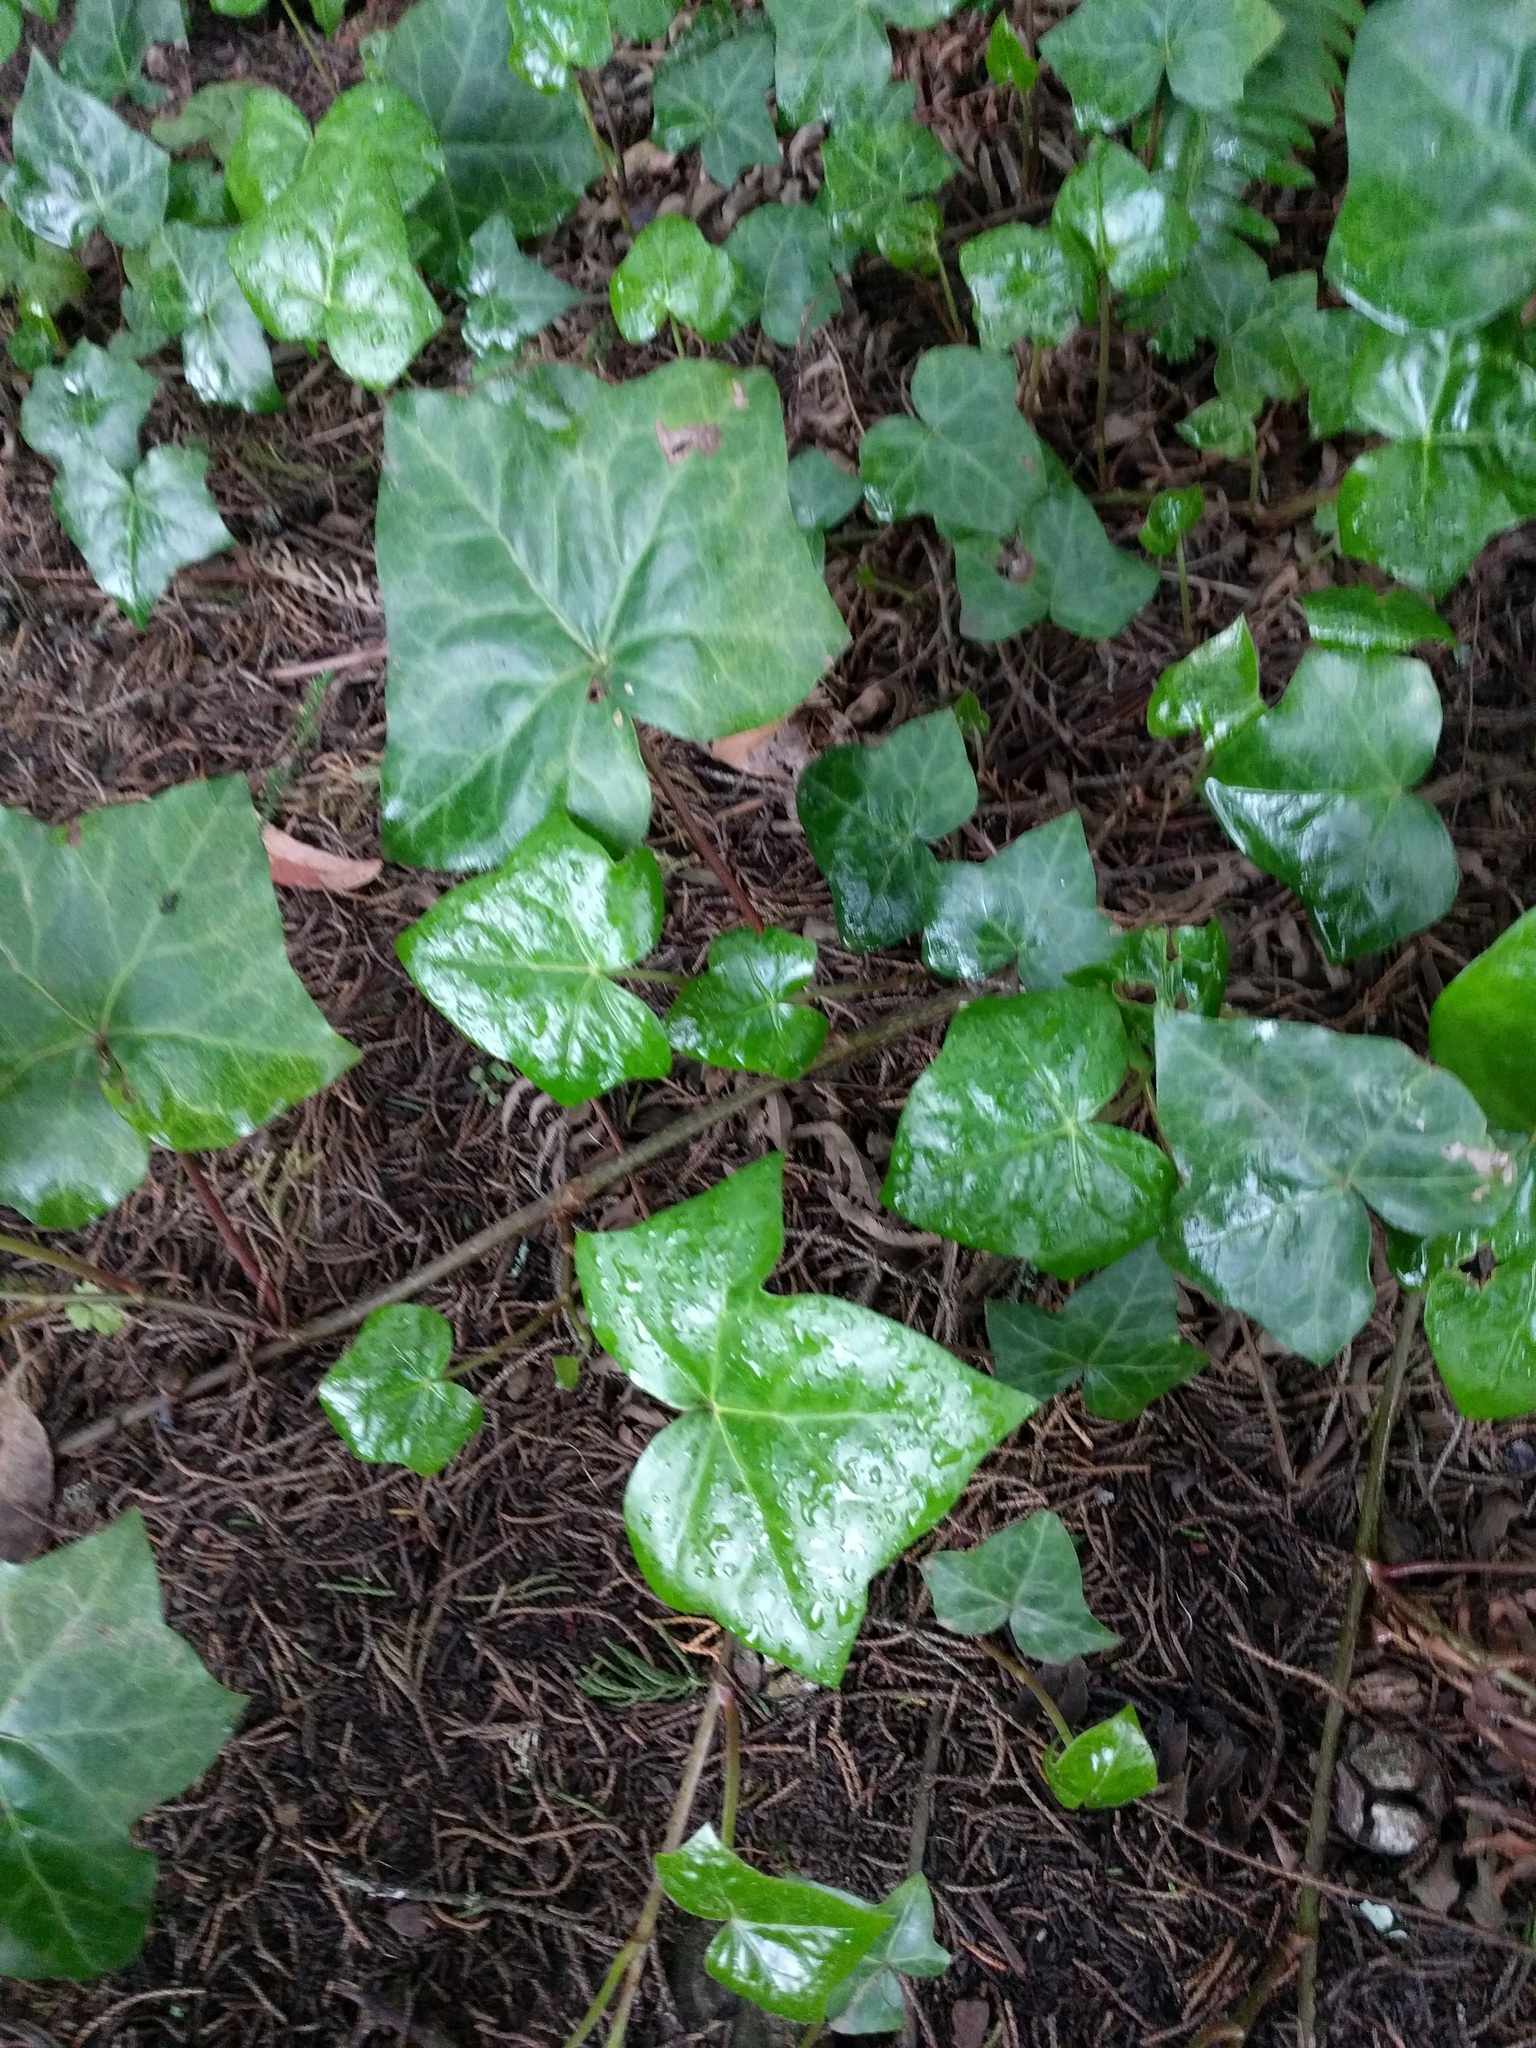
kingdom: Plantae
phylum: Tracheophyta
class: Magnoliopsida
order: Apiales
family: Araliaceae
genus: Hedera
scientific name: Hedera helix
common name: Ivy
